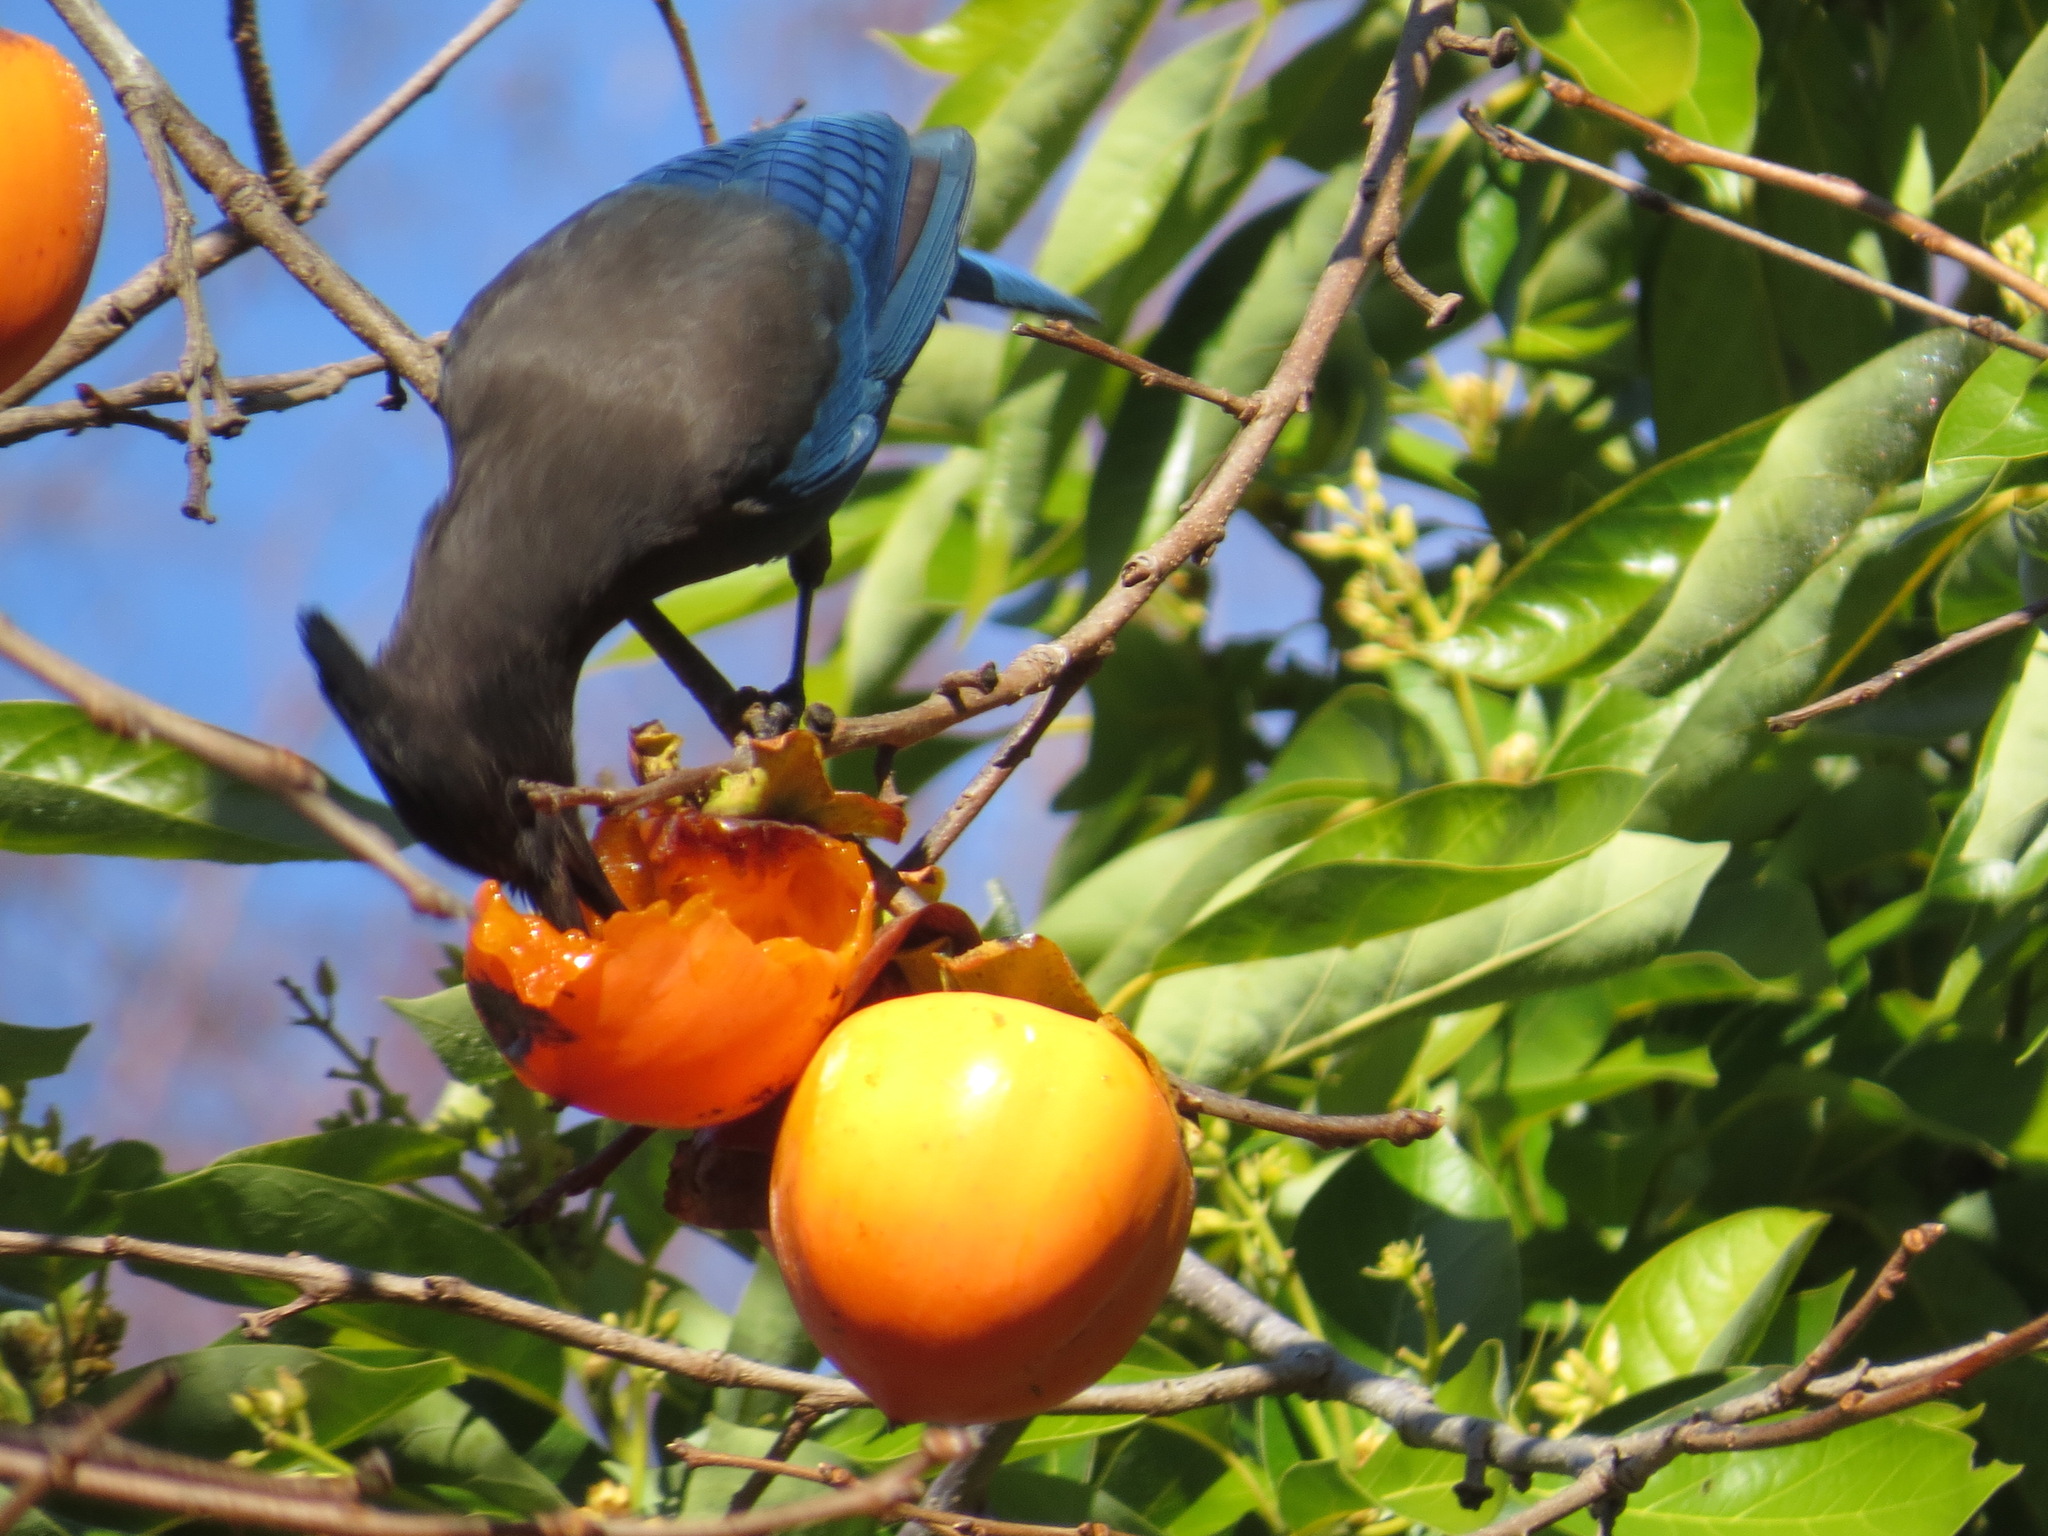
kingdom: Animalia
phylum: Chordata
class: Aves
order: Passeriformes
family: Corvidae
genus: Cyanocitta
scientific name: Cyanocitta stelleri
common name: Steller's jay
